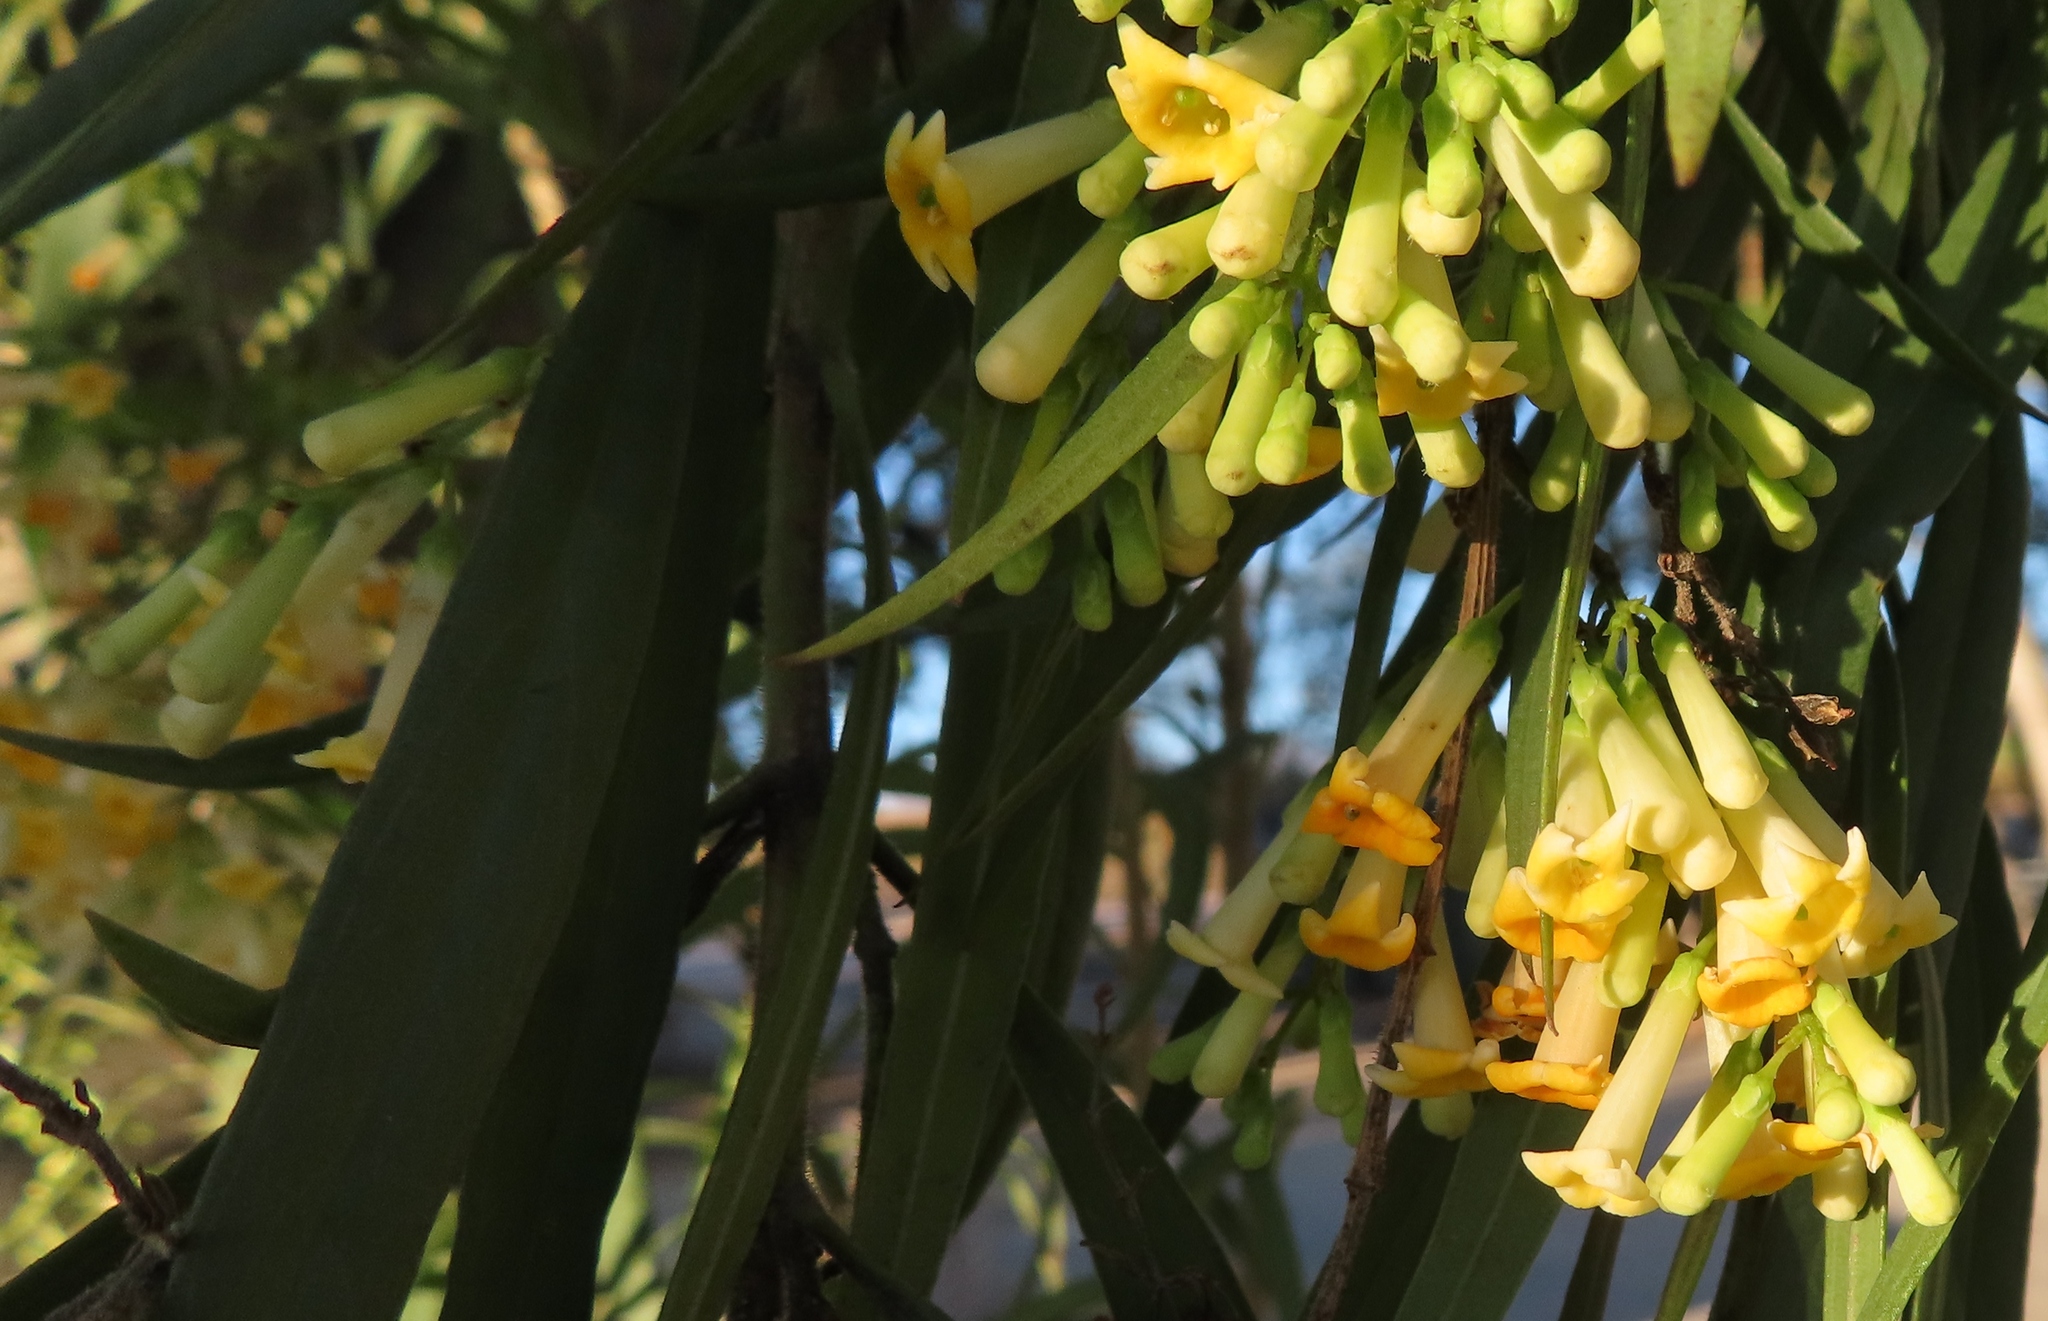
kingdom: Plantae
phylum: Tracheophyta
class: Magnoliopsida
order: Lamiales
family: Scrophulariaceae
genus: Freylinia
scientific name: Freylinia lanceolata
